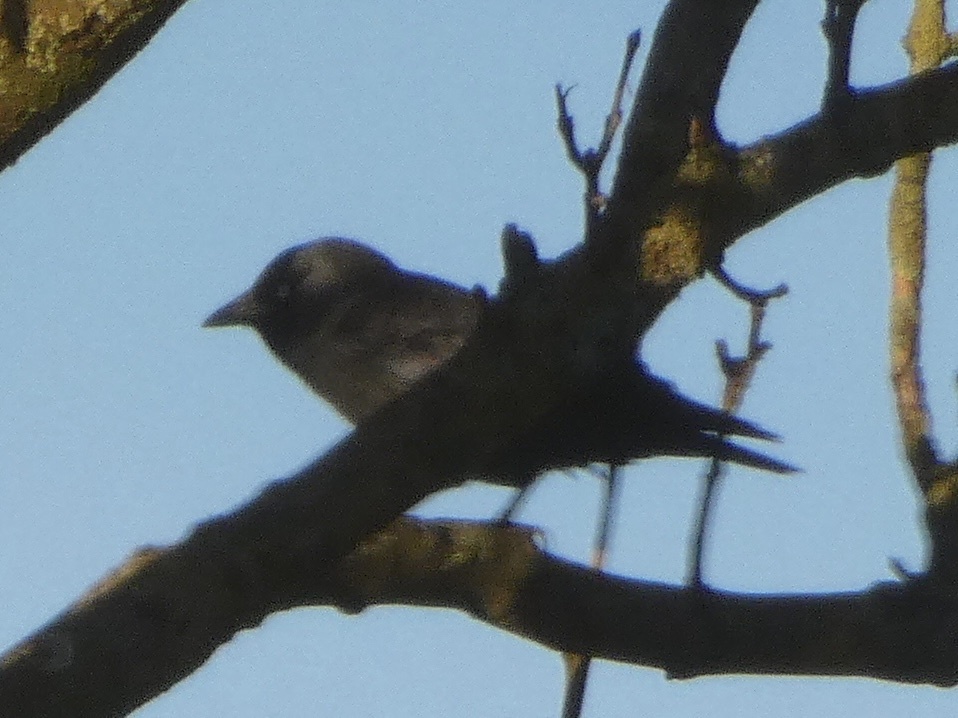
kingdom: Animalia
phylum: Chordata
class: Aves
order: Passeriformes
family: Corvidae
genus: Coloeus
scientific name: Coloeus monedula
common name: Western jackdaw
